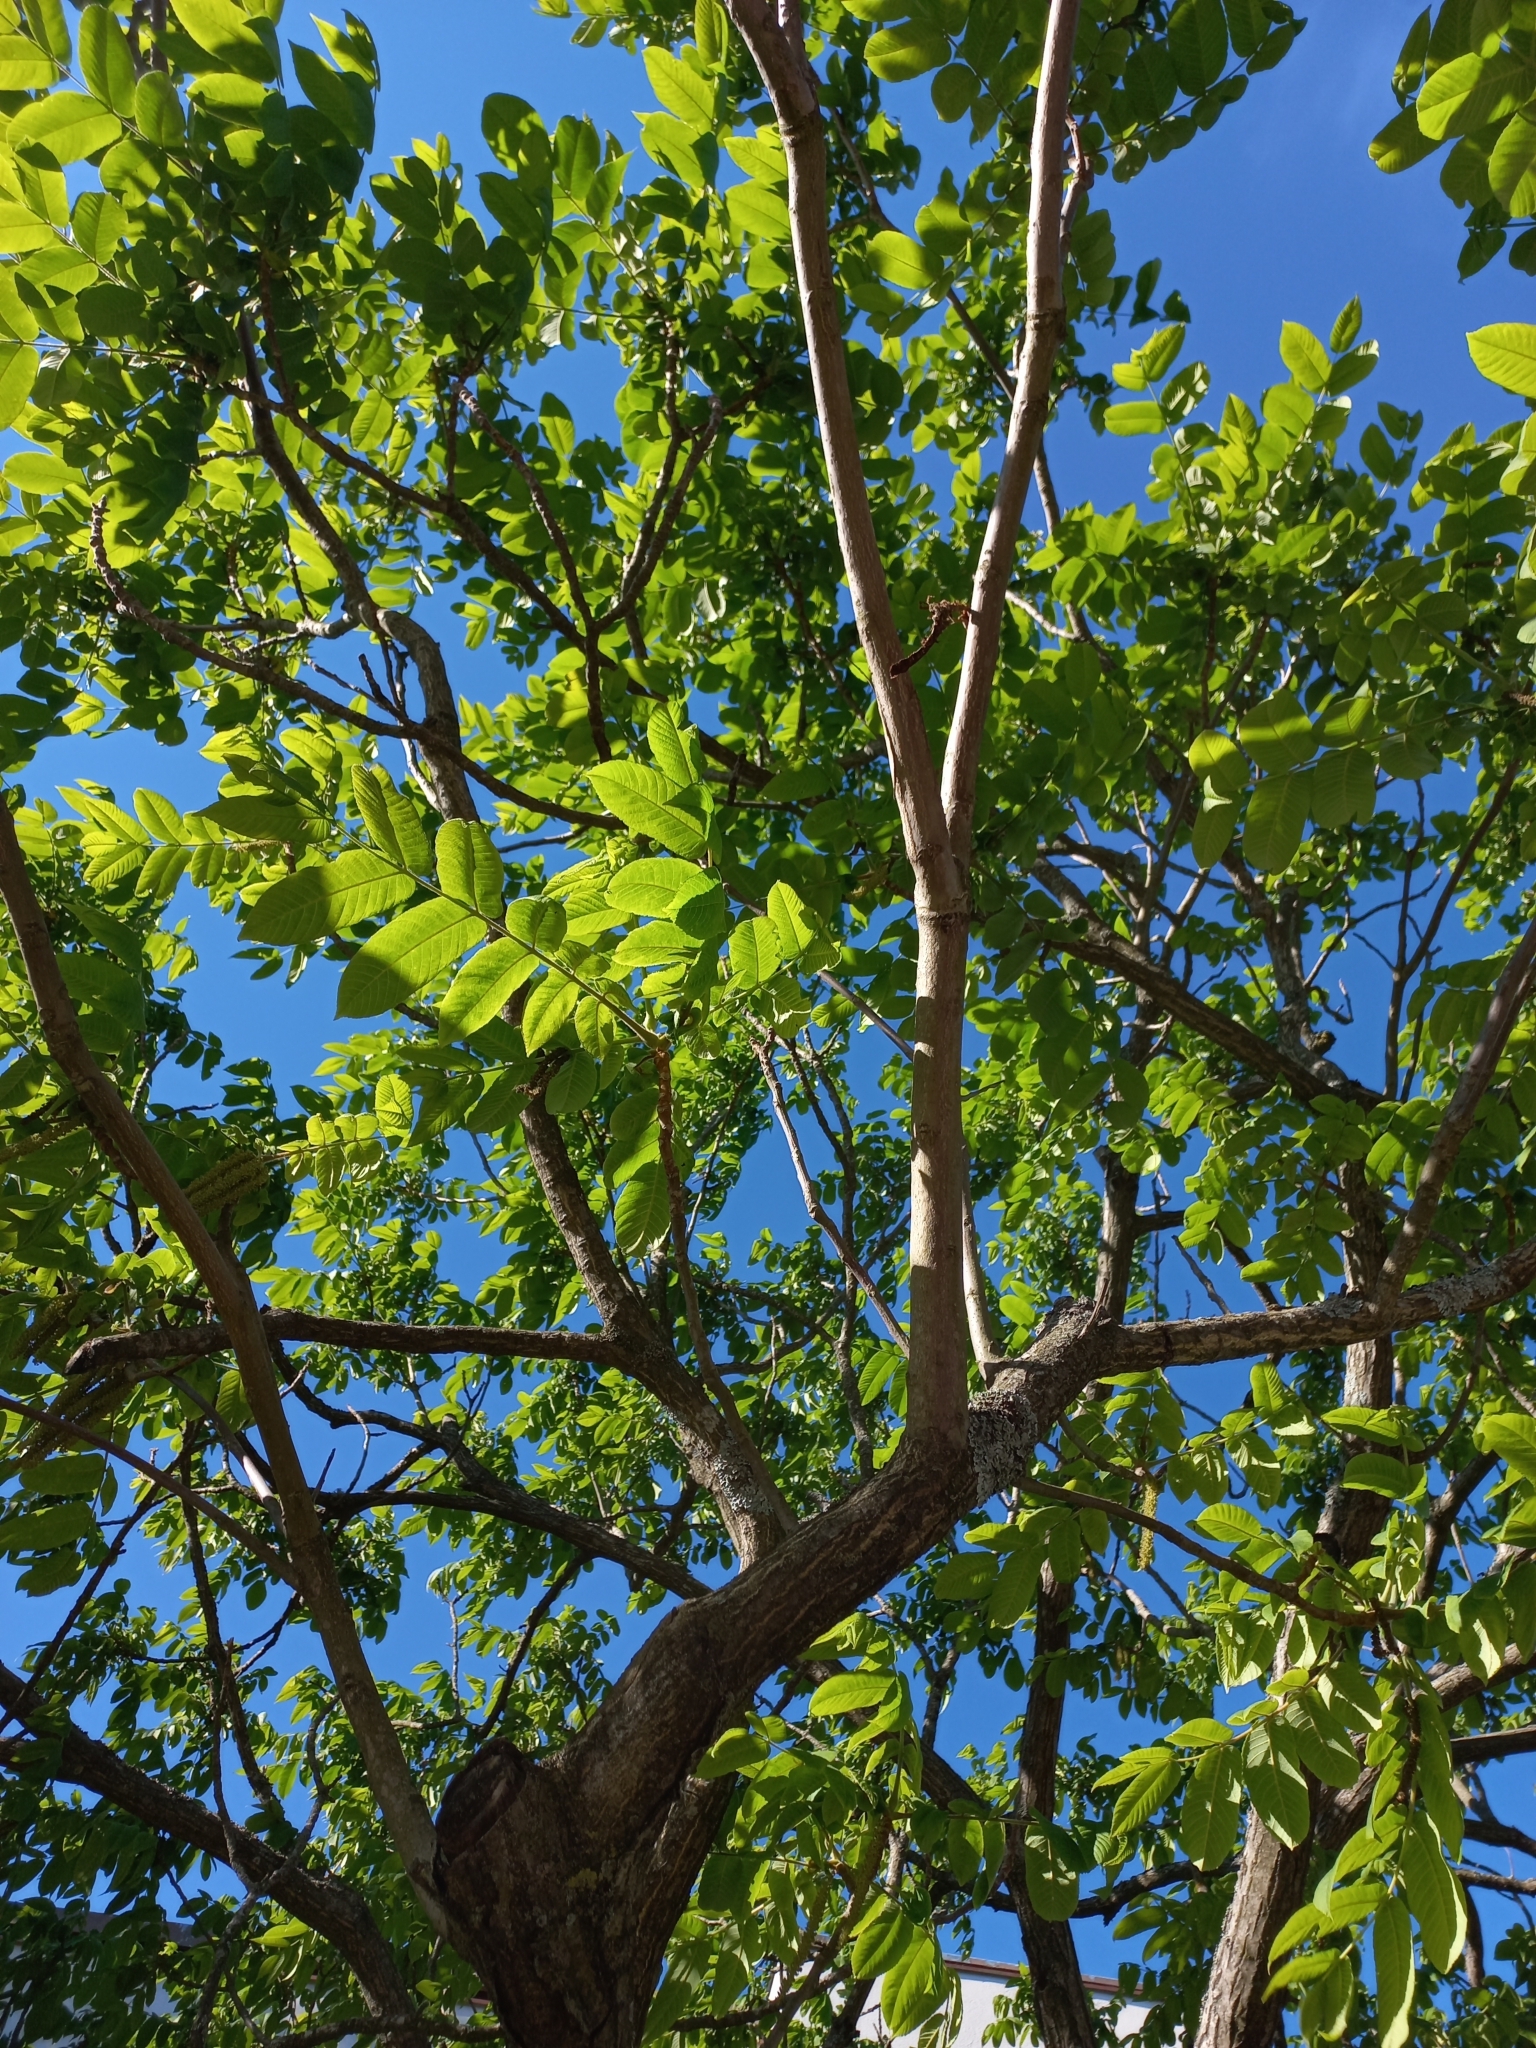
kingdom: Plantae
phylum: Tracheophyta
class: Magnoliopsida
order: Lamiales
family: Oleaceae
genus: Fraxinus
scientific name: Fraxinus excelsior
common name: European ash
